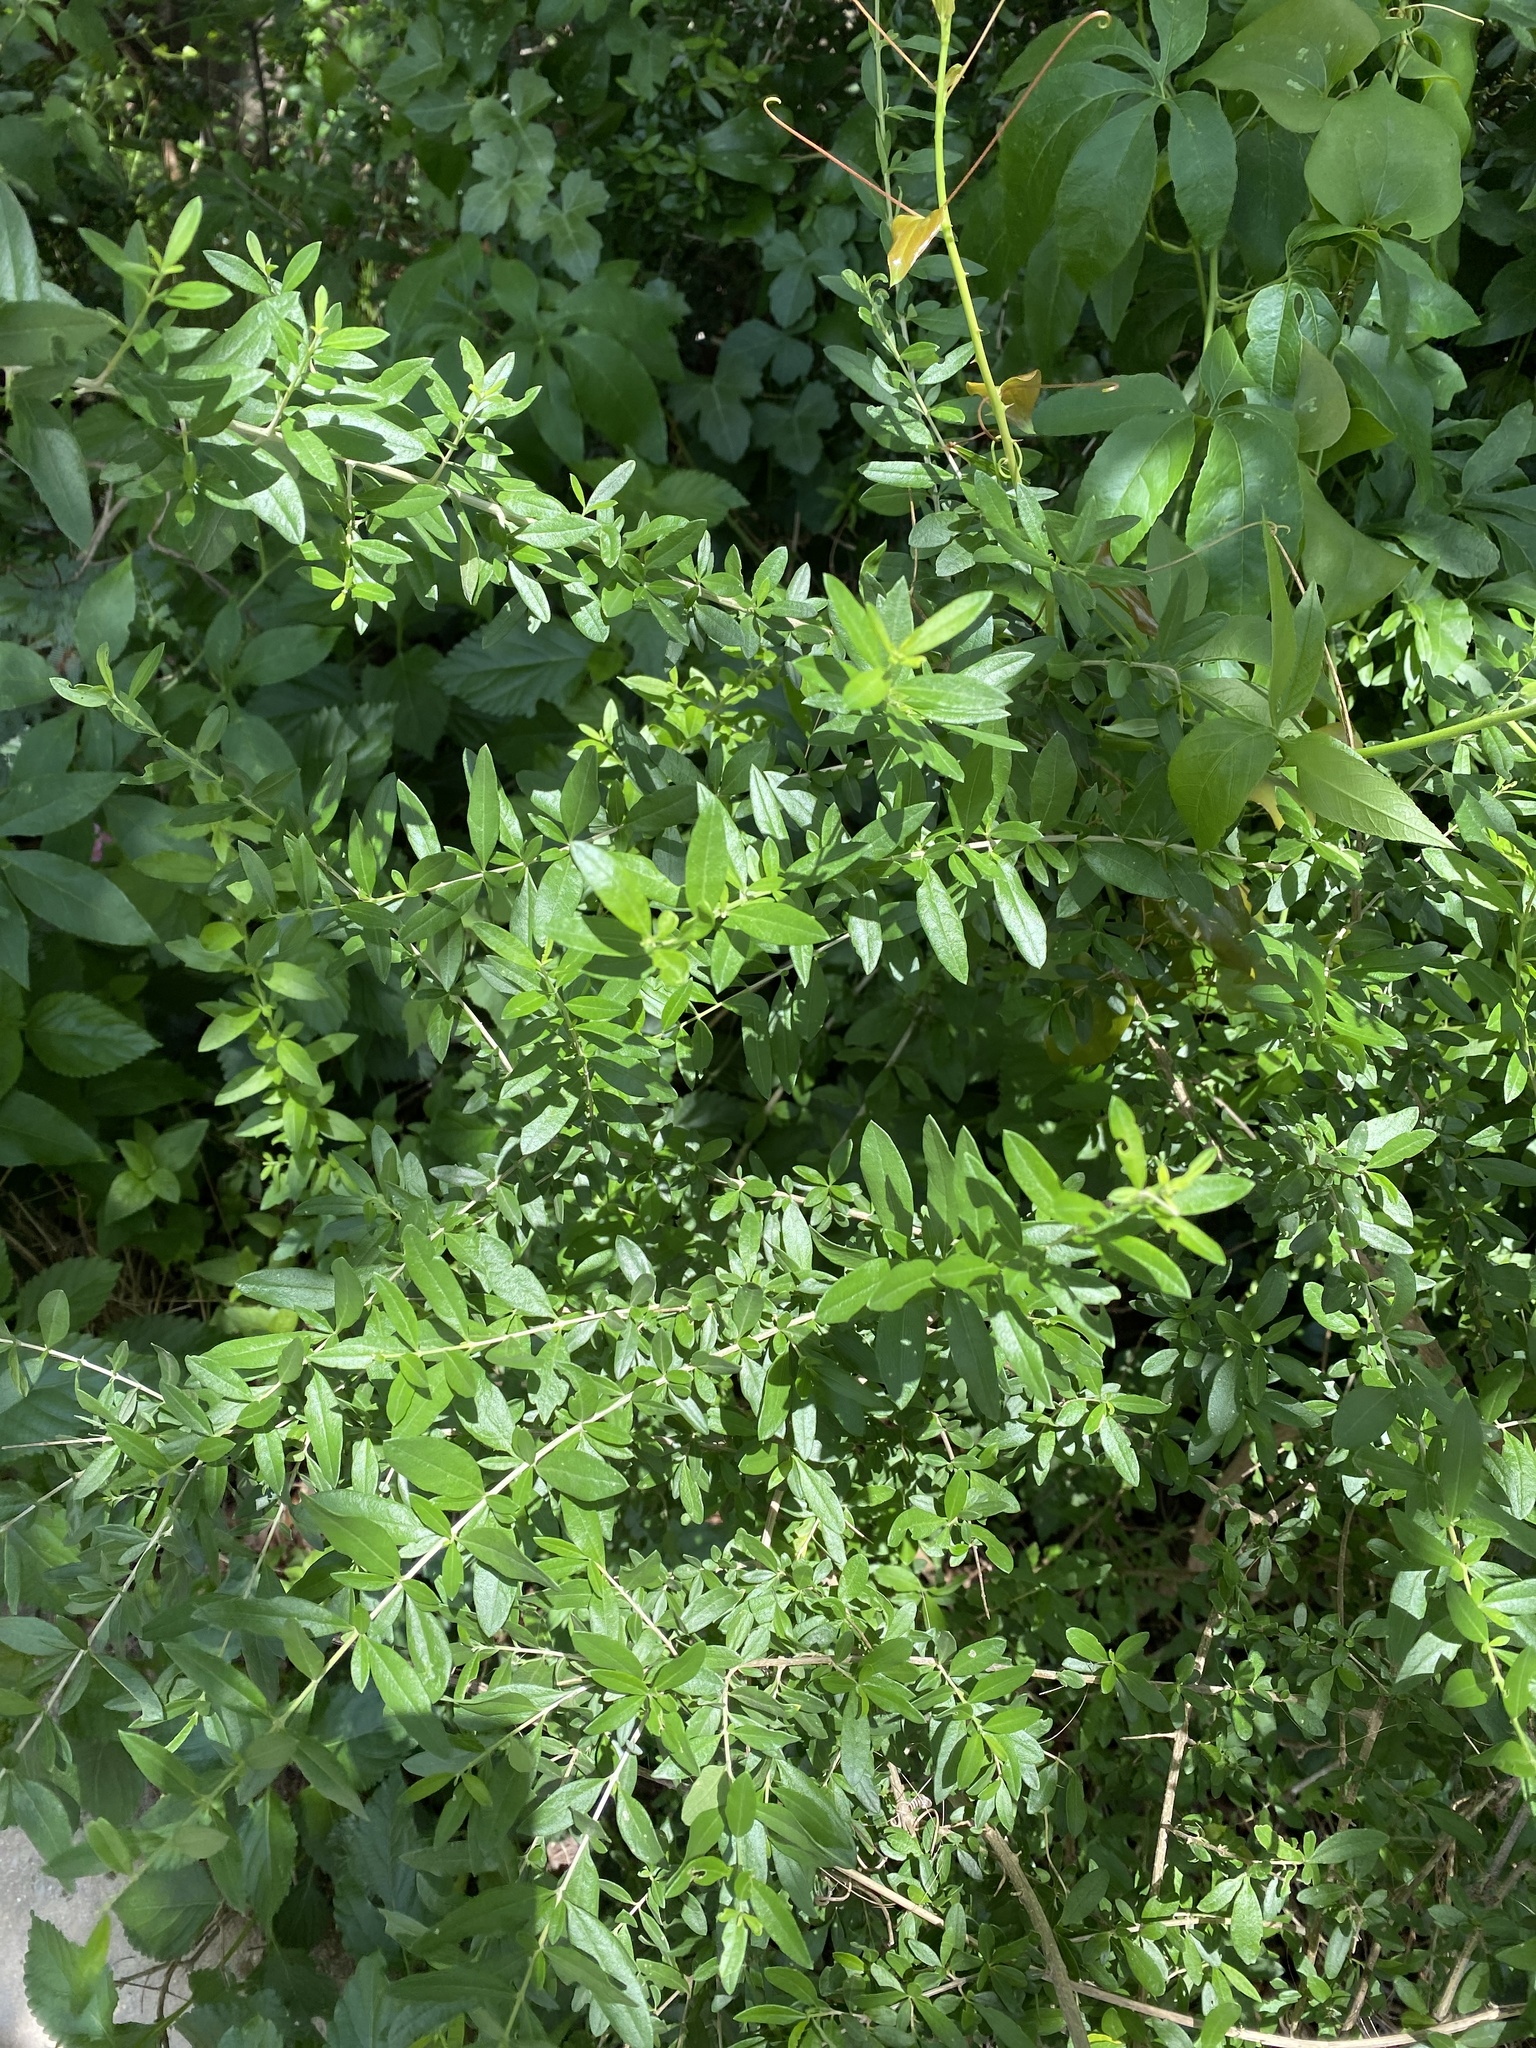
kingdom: Plantae
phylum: Tracheophyta
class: Magnoliopsida
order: Lamiales
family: Verbenaceae
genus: Aloysia
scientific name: Aloysia gratissima
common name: Common bee-brush
